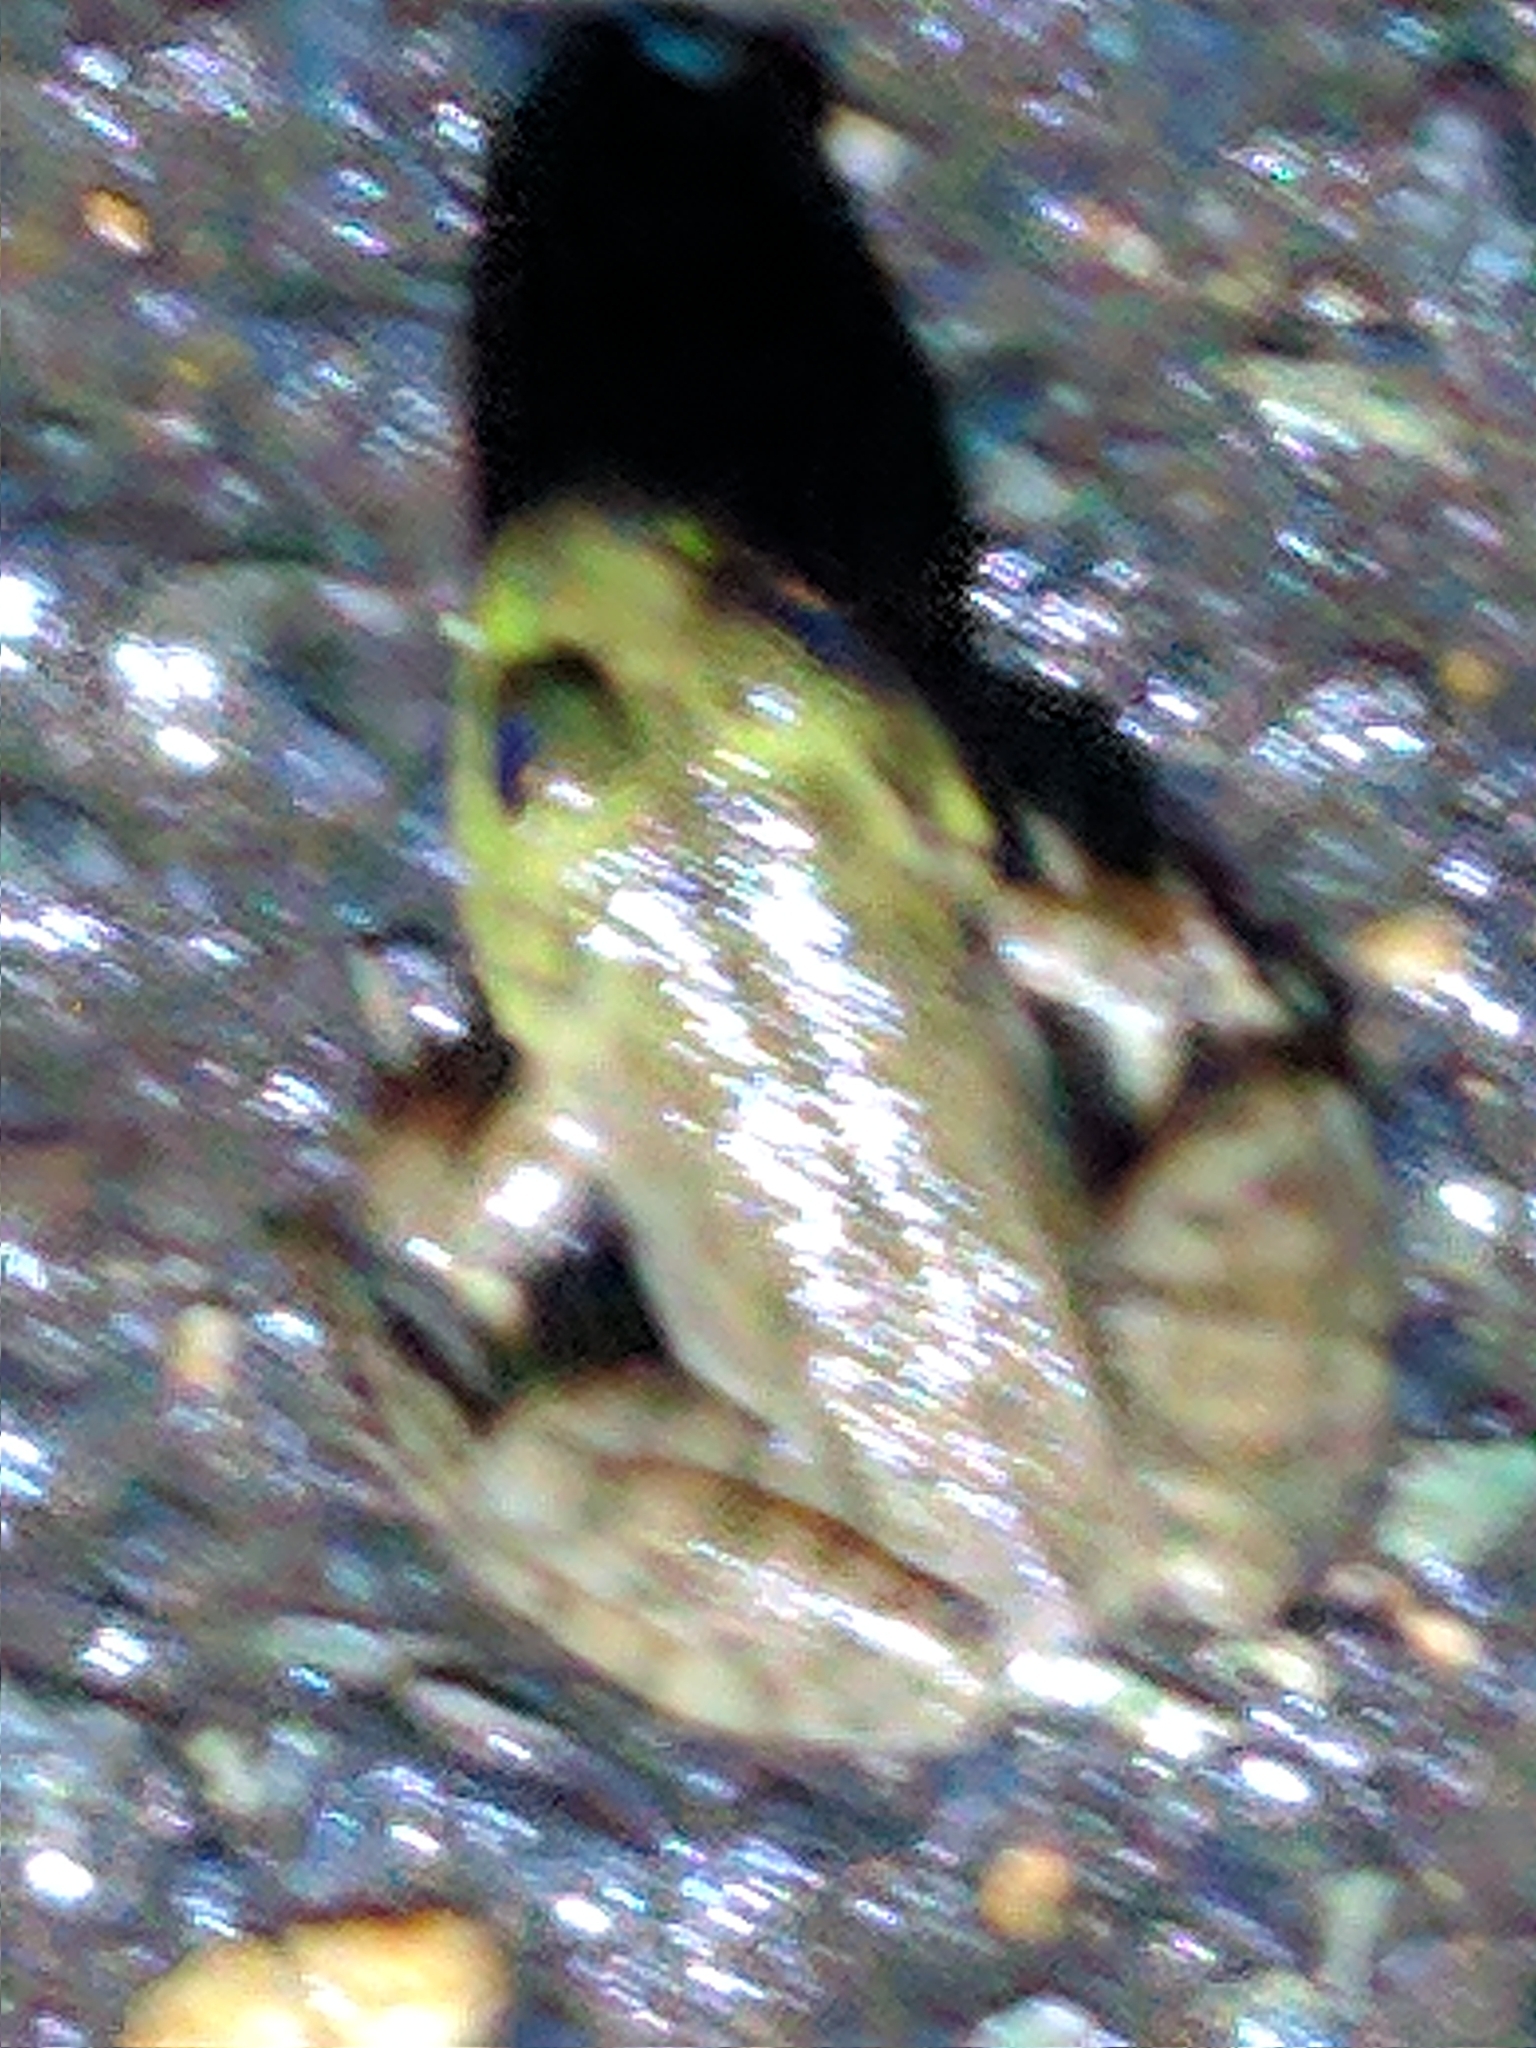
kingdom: Animalia
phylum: Chordata
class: Amphibia
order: Anura
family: Ranidae
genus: Lithobates
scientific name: Lithobates catesbeianus
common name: American bullfrog
